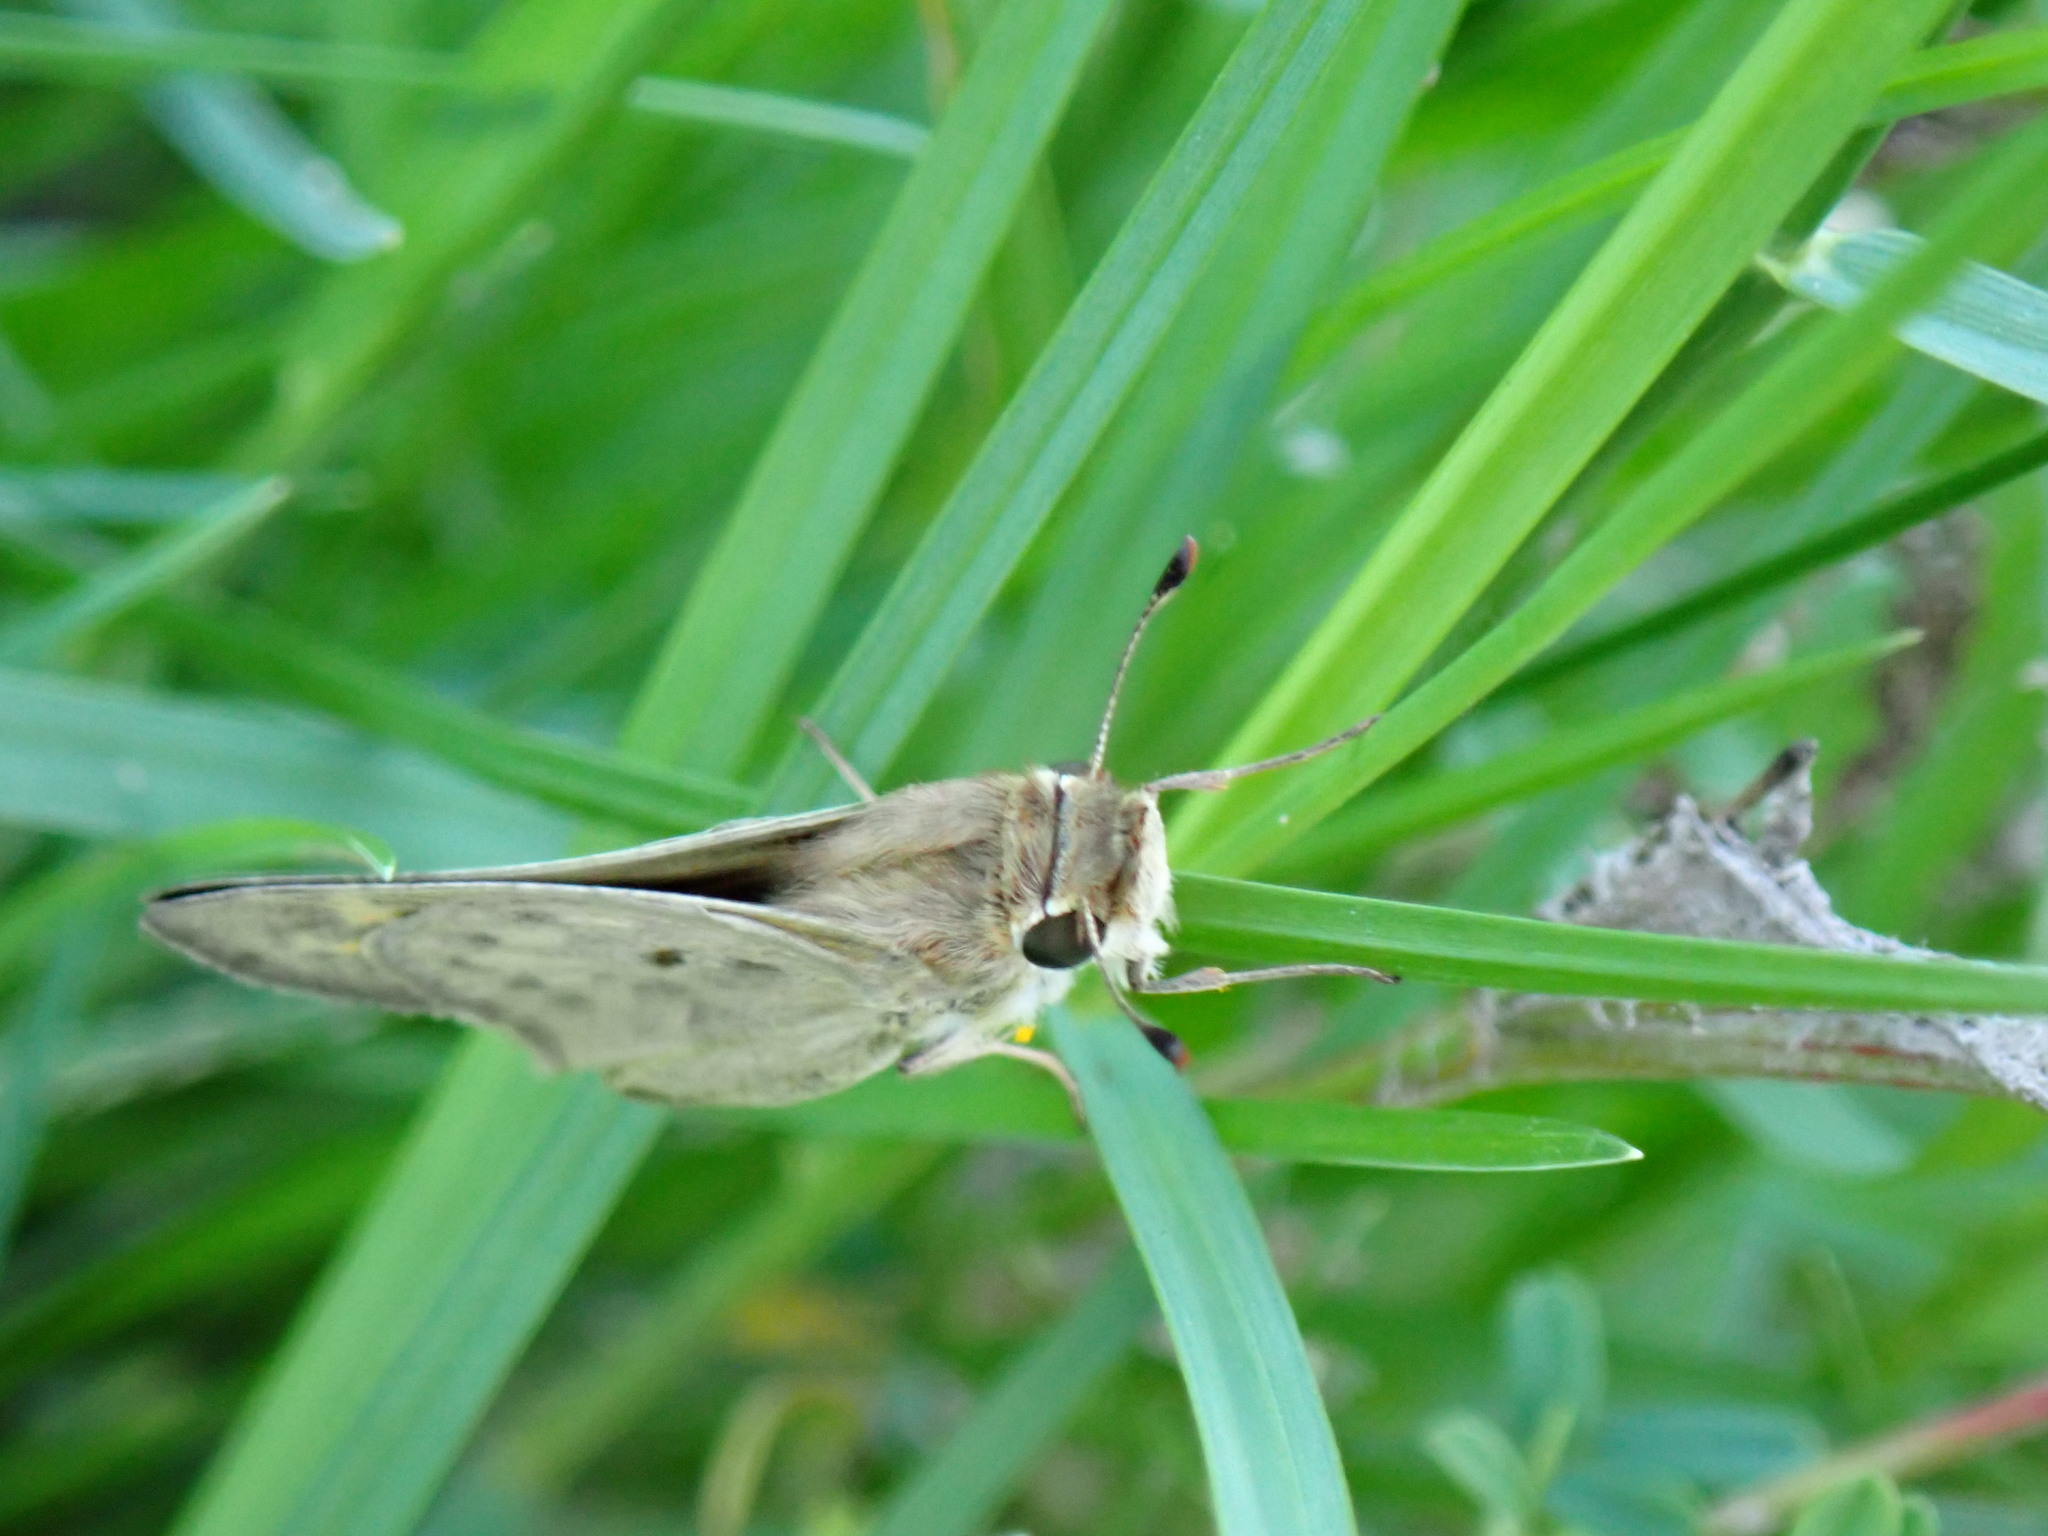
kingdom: Animalia
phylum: Arthropoda
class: Insecta
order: Lepidoptera
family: Hesperiidae
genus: Hylephila
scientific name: Hylephila phyleus
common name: Fiery skipper
